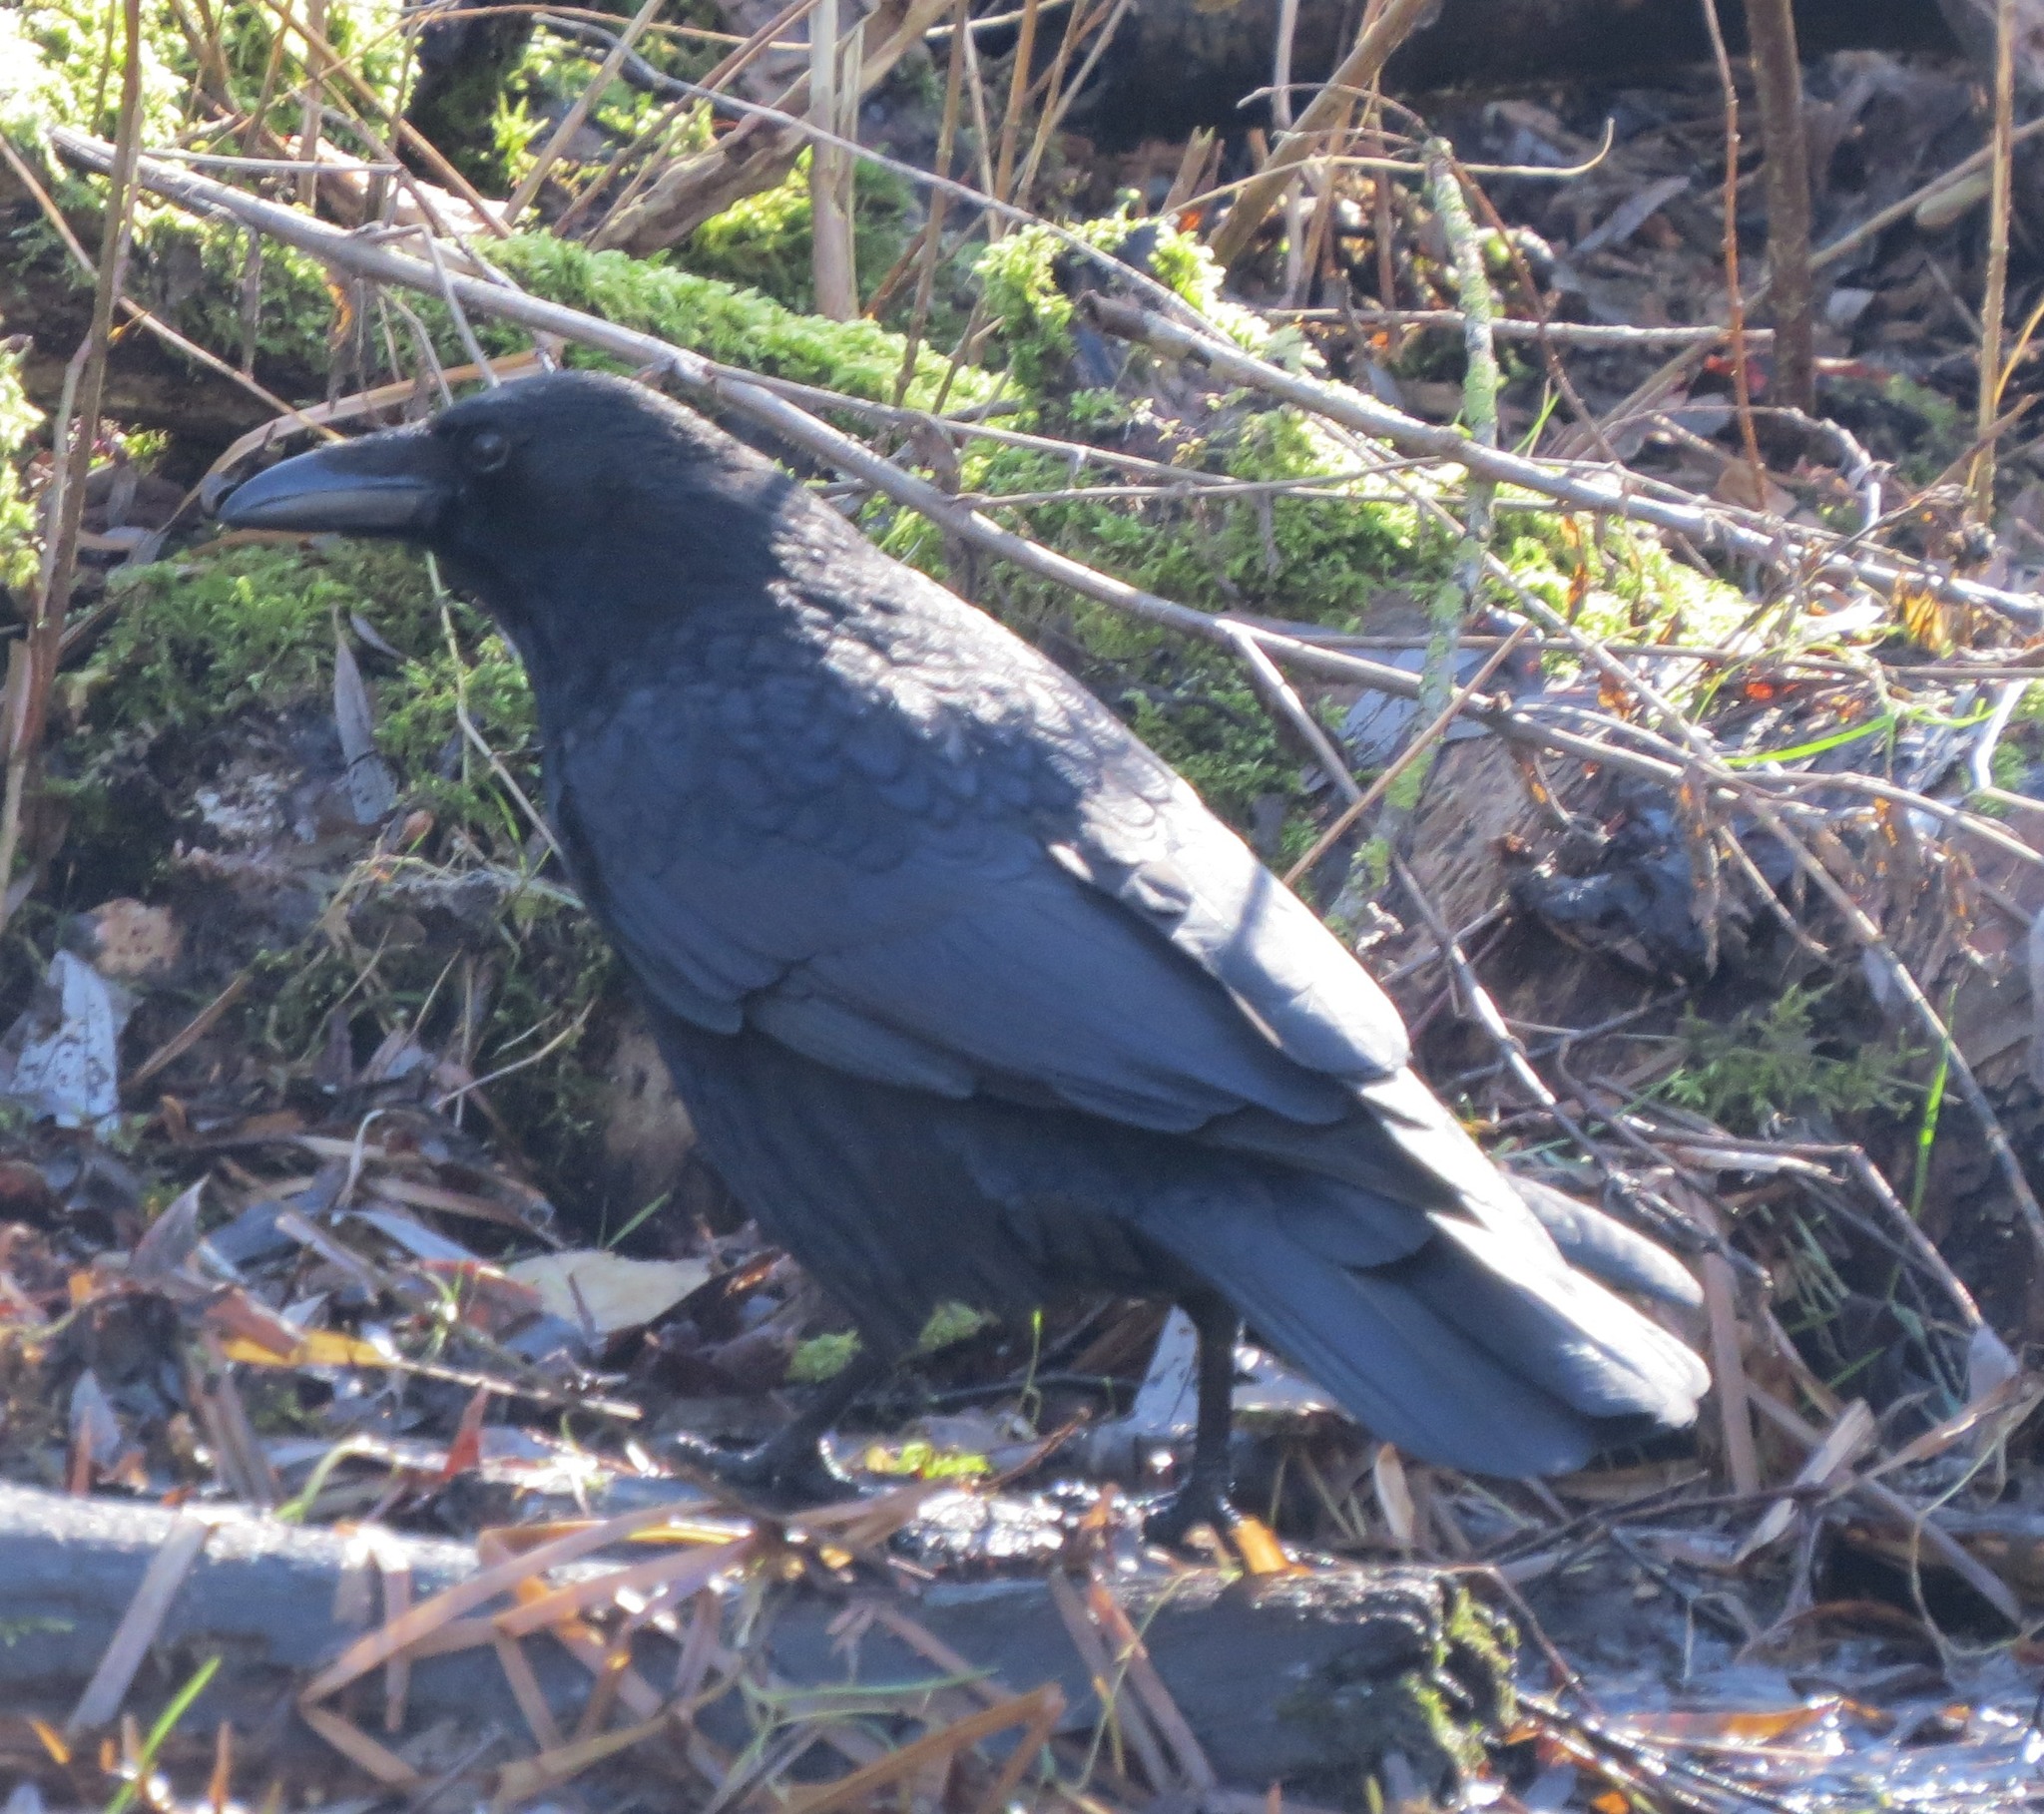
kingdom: Animalia
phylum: Chordata
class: Aves
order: Passeriformes
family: Corvidae
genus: Corvus
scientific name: Corvus corone
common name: Carrion crow
